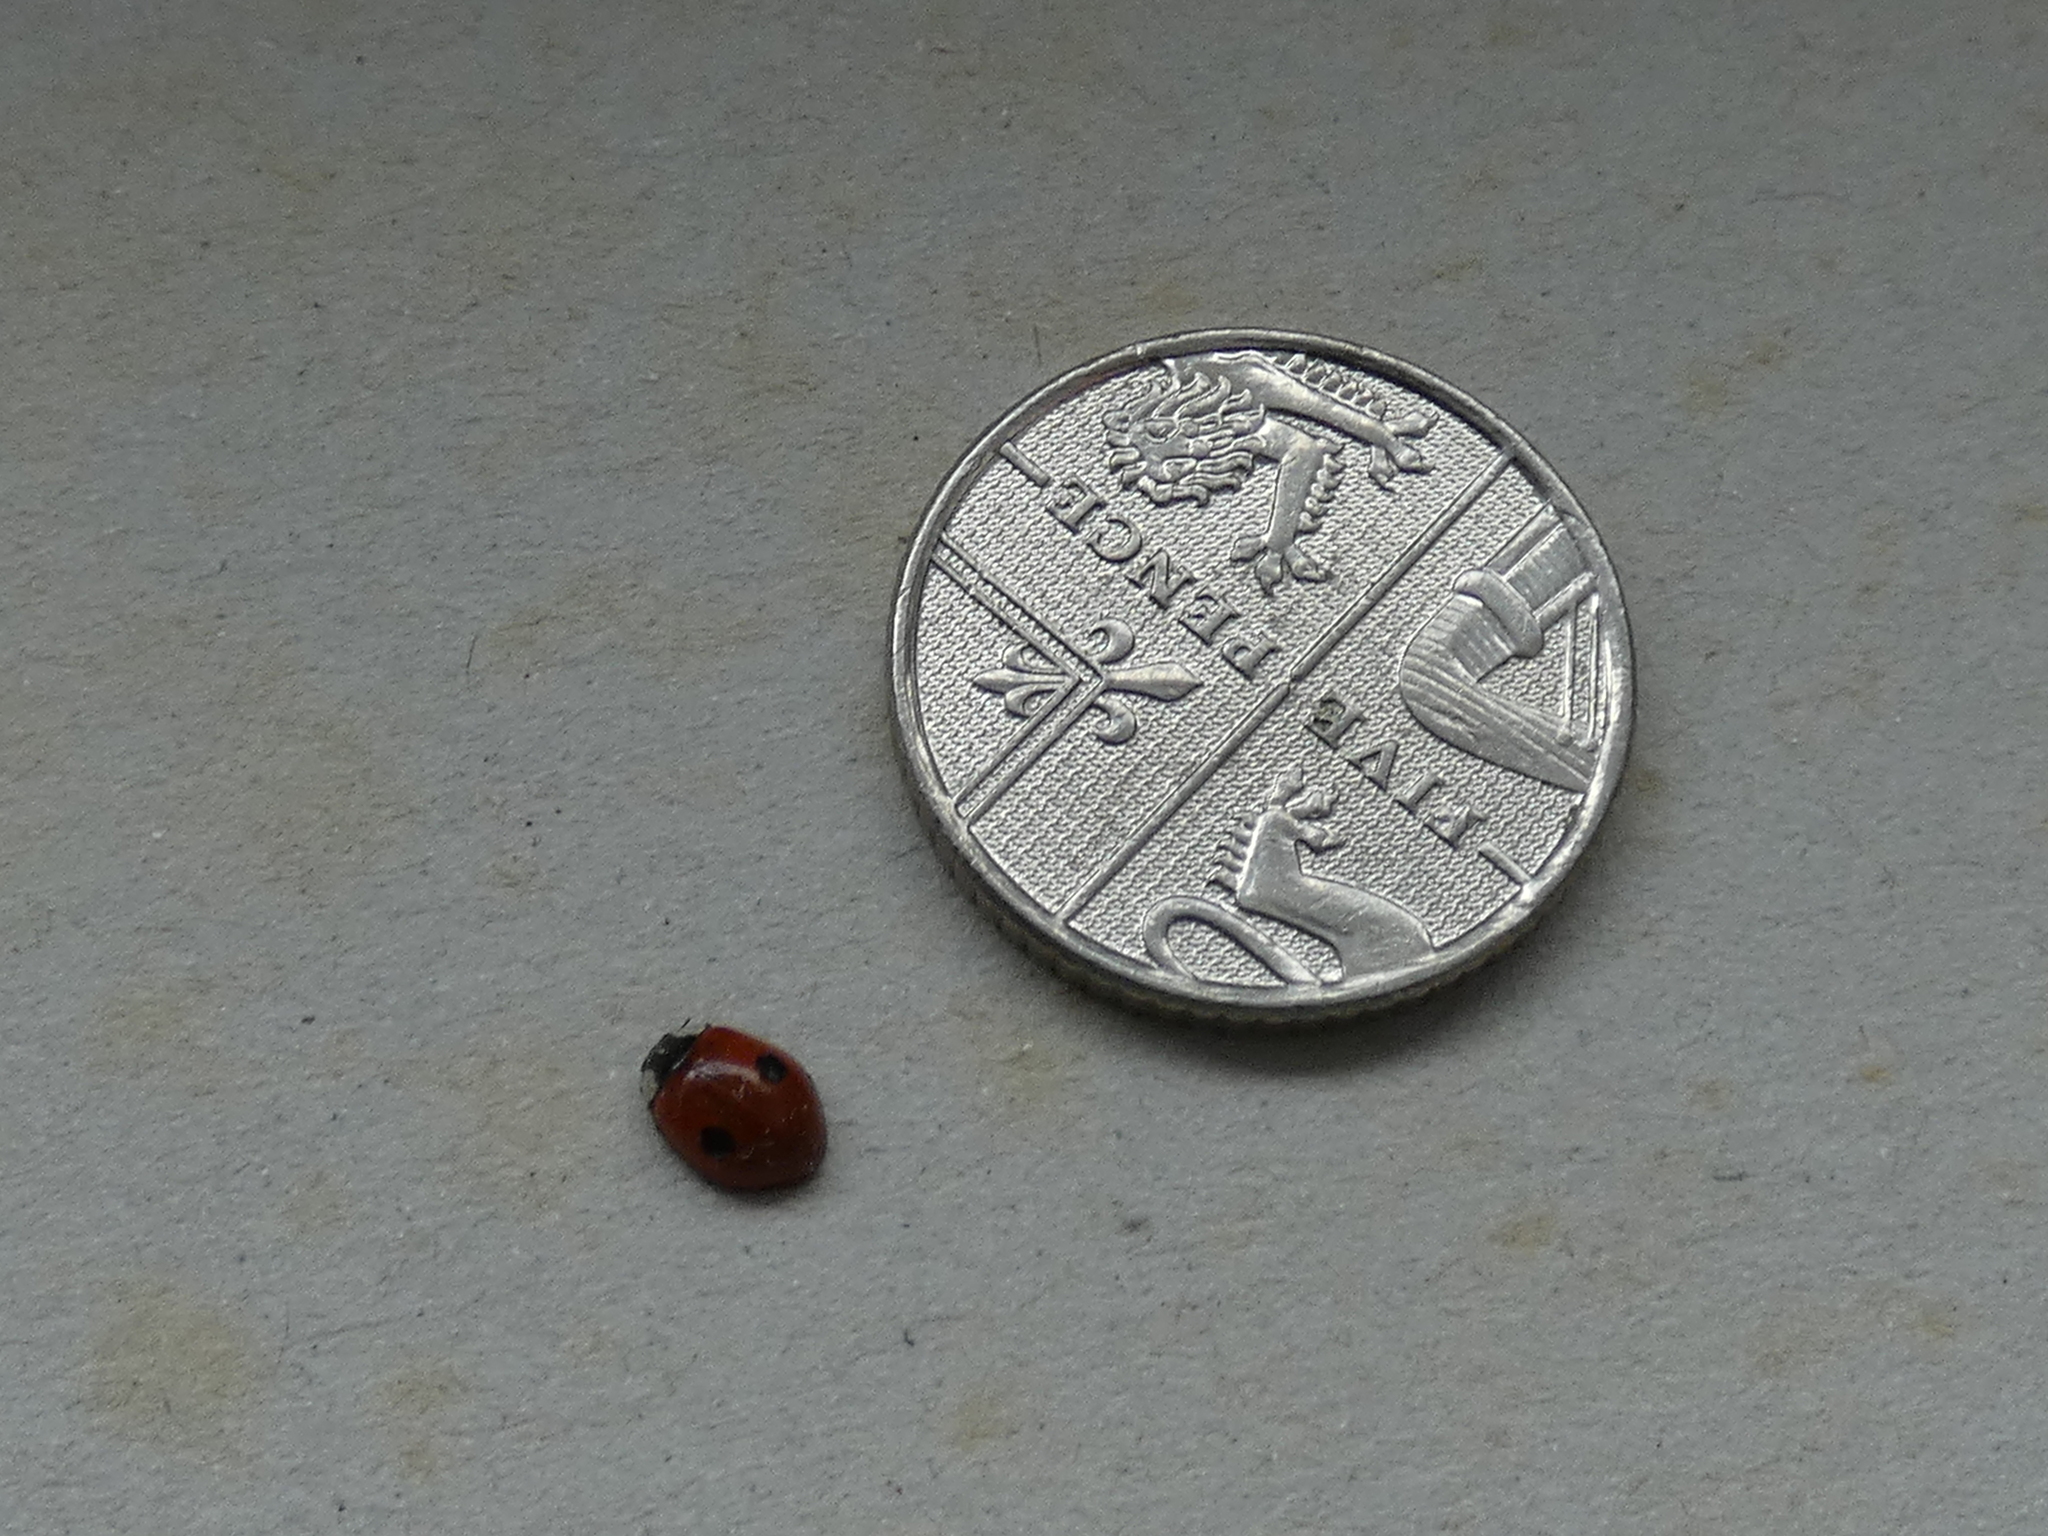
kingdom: Animalia
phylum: Arthropoda
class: Insecta
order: Coleoptera
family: Coccinellidae
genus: Adalia
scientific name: Adalia bipunctata
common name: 2-spot ladybird
